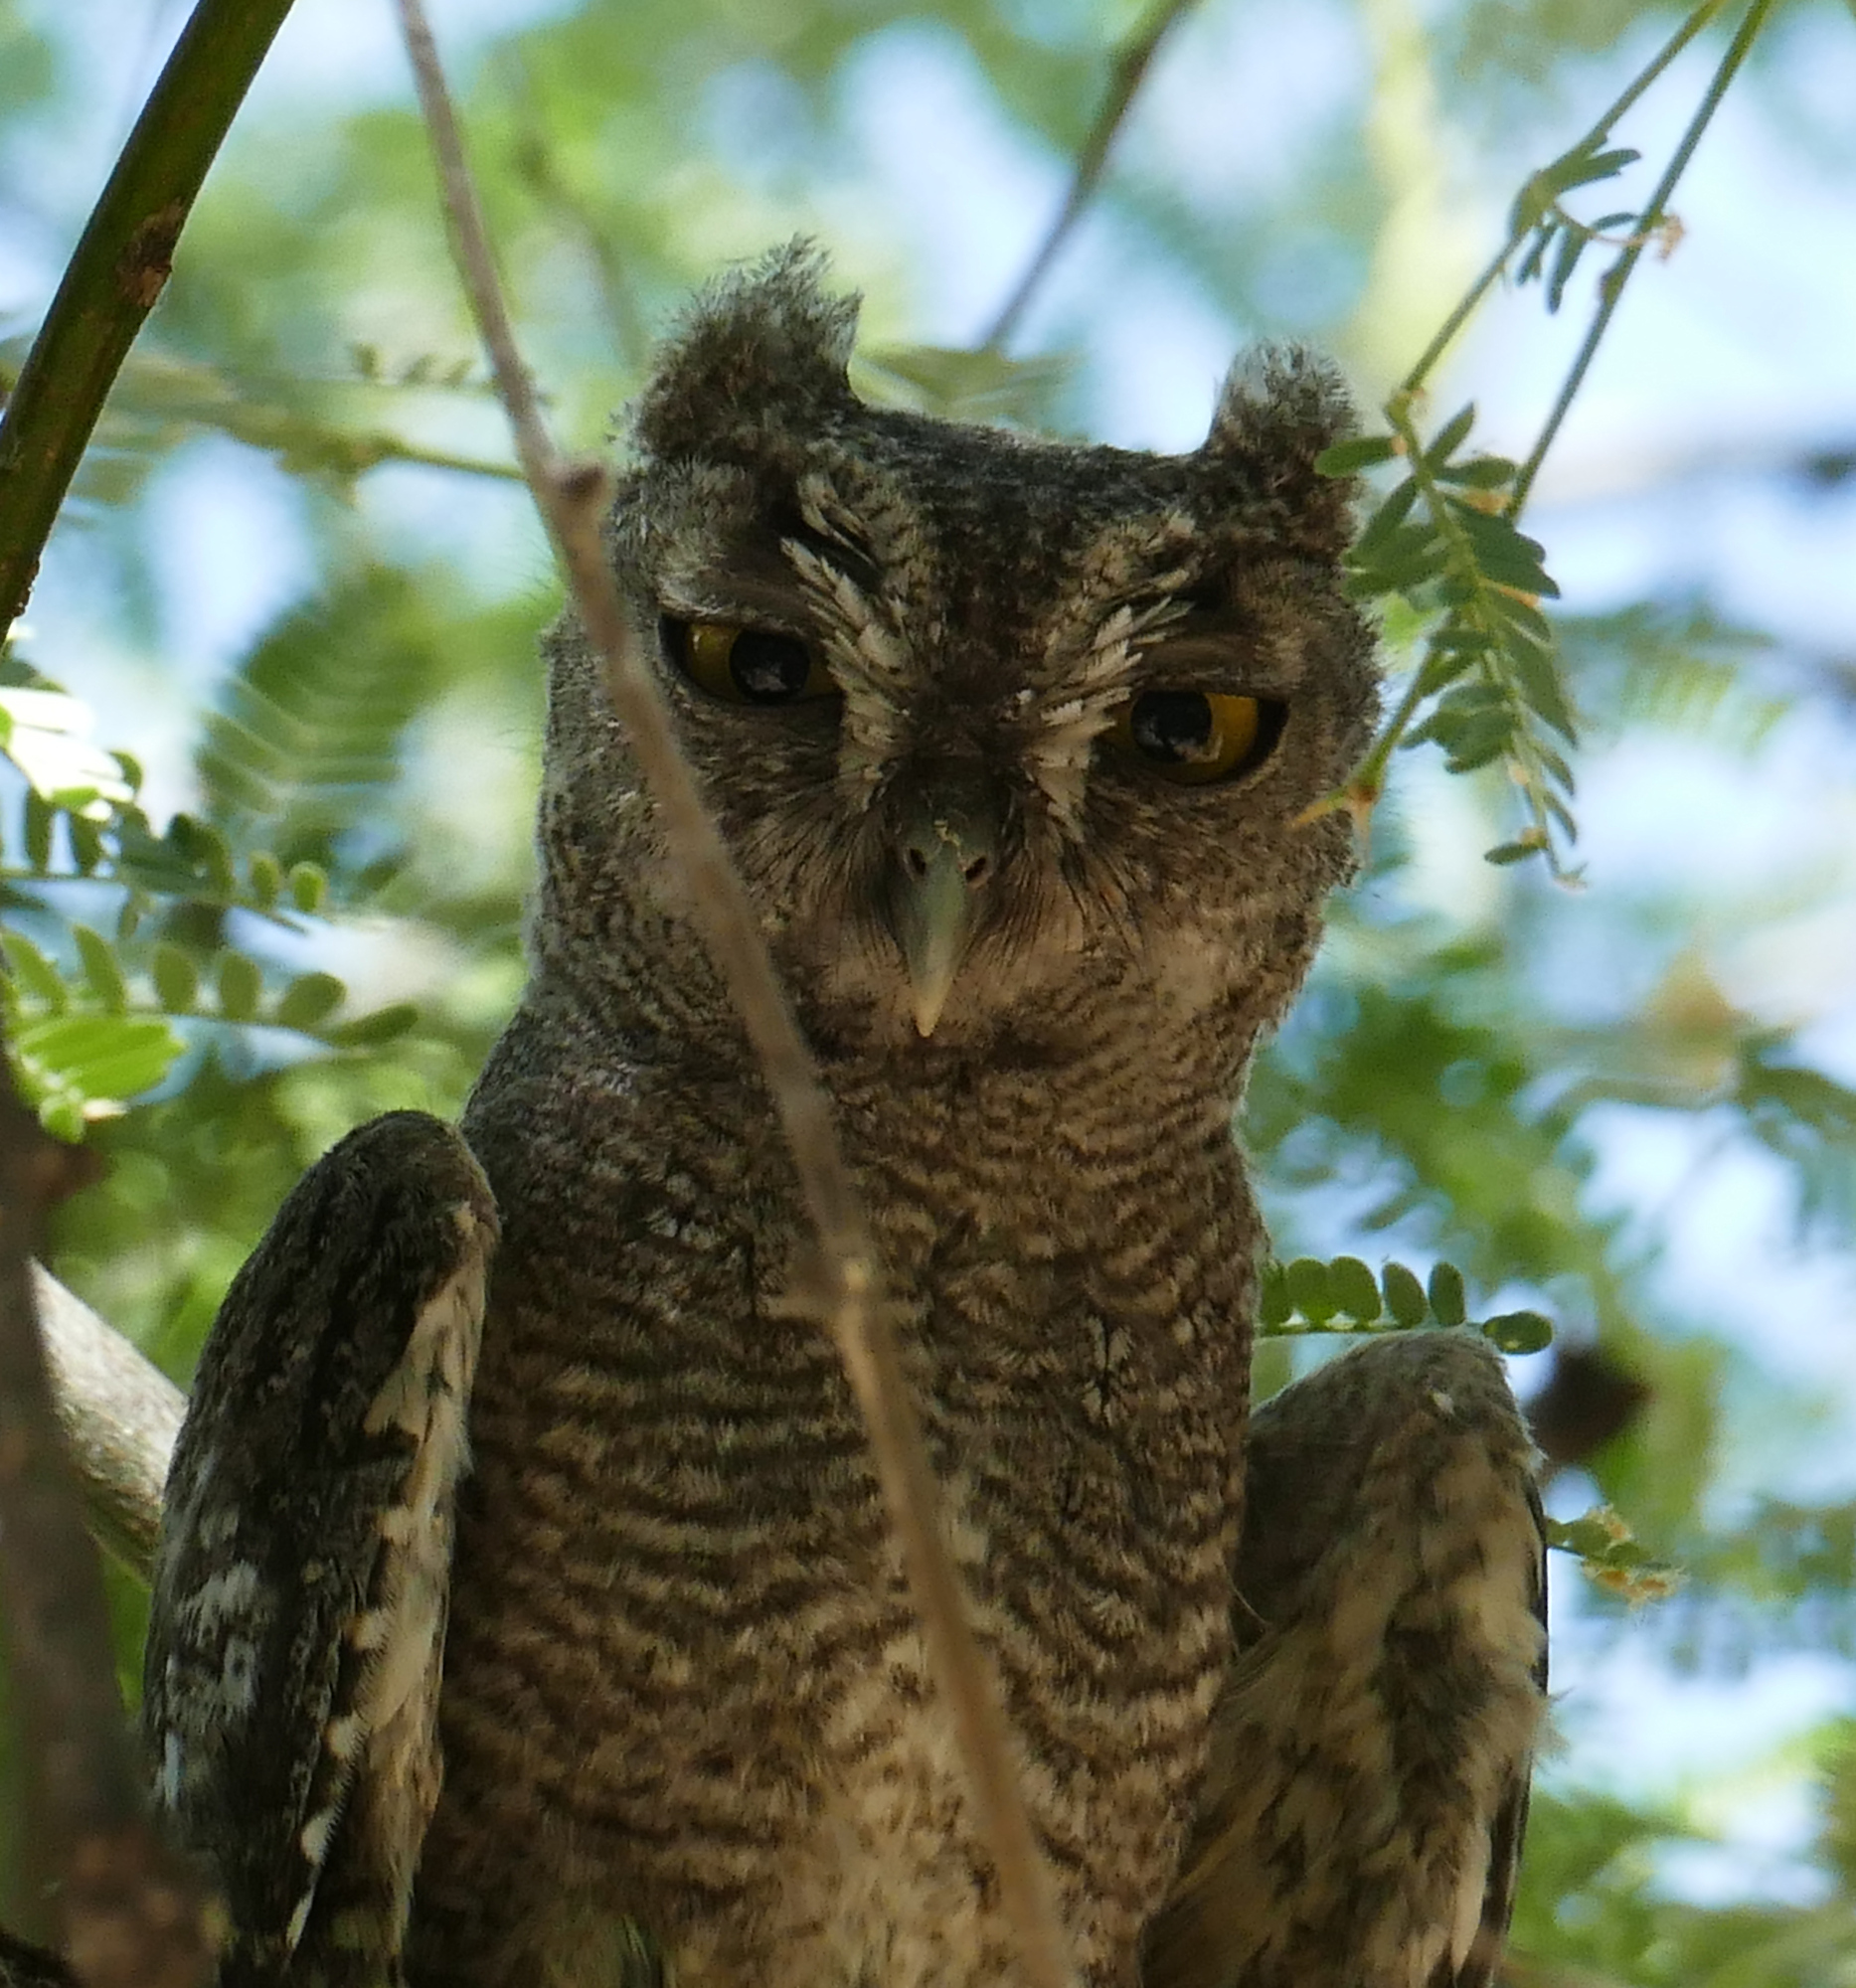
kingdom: Animalia
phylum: Chordata
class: Aves
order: Strigiformes
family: Strigidae
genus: Megascops
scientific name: Megascops kennicottii
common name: Western screech-owl
